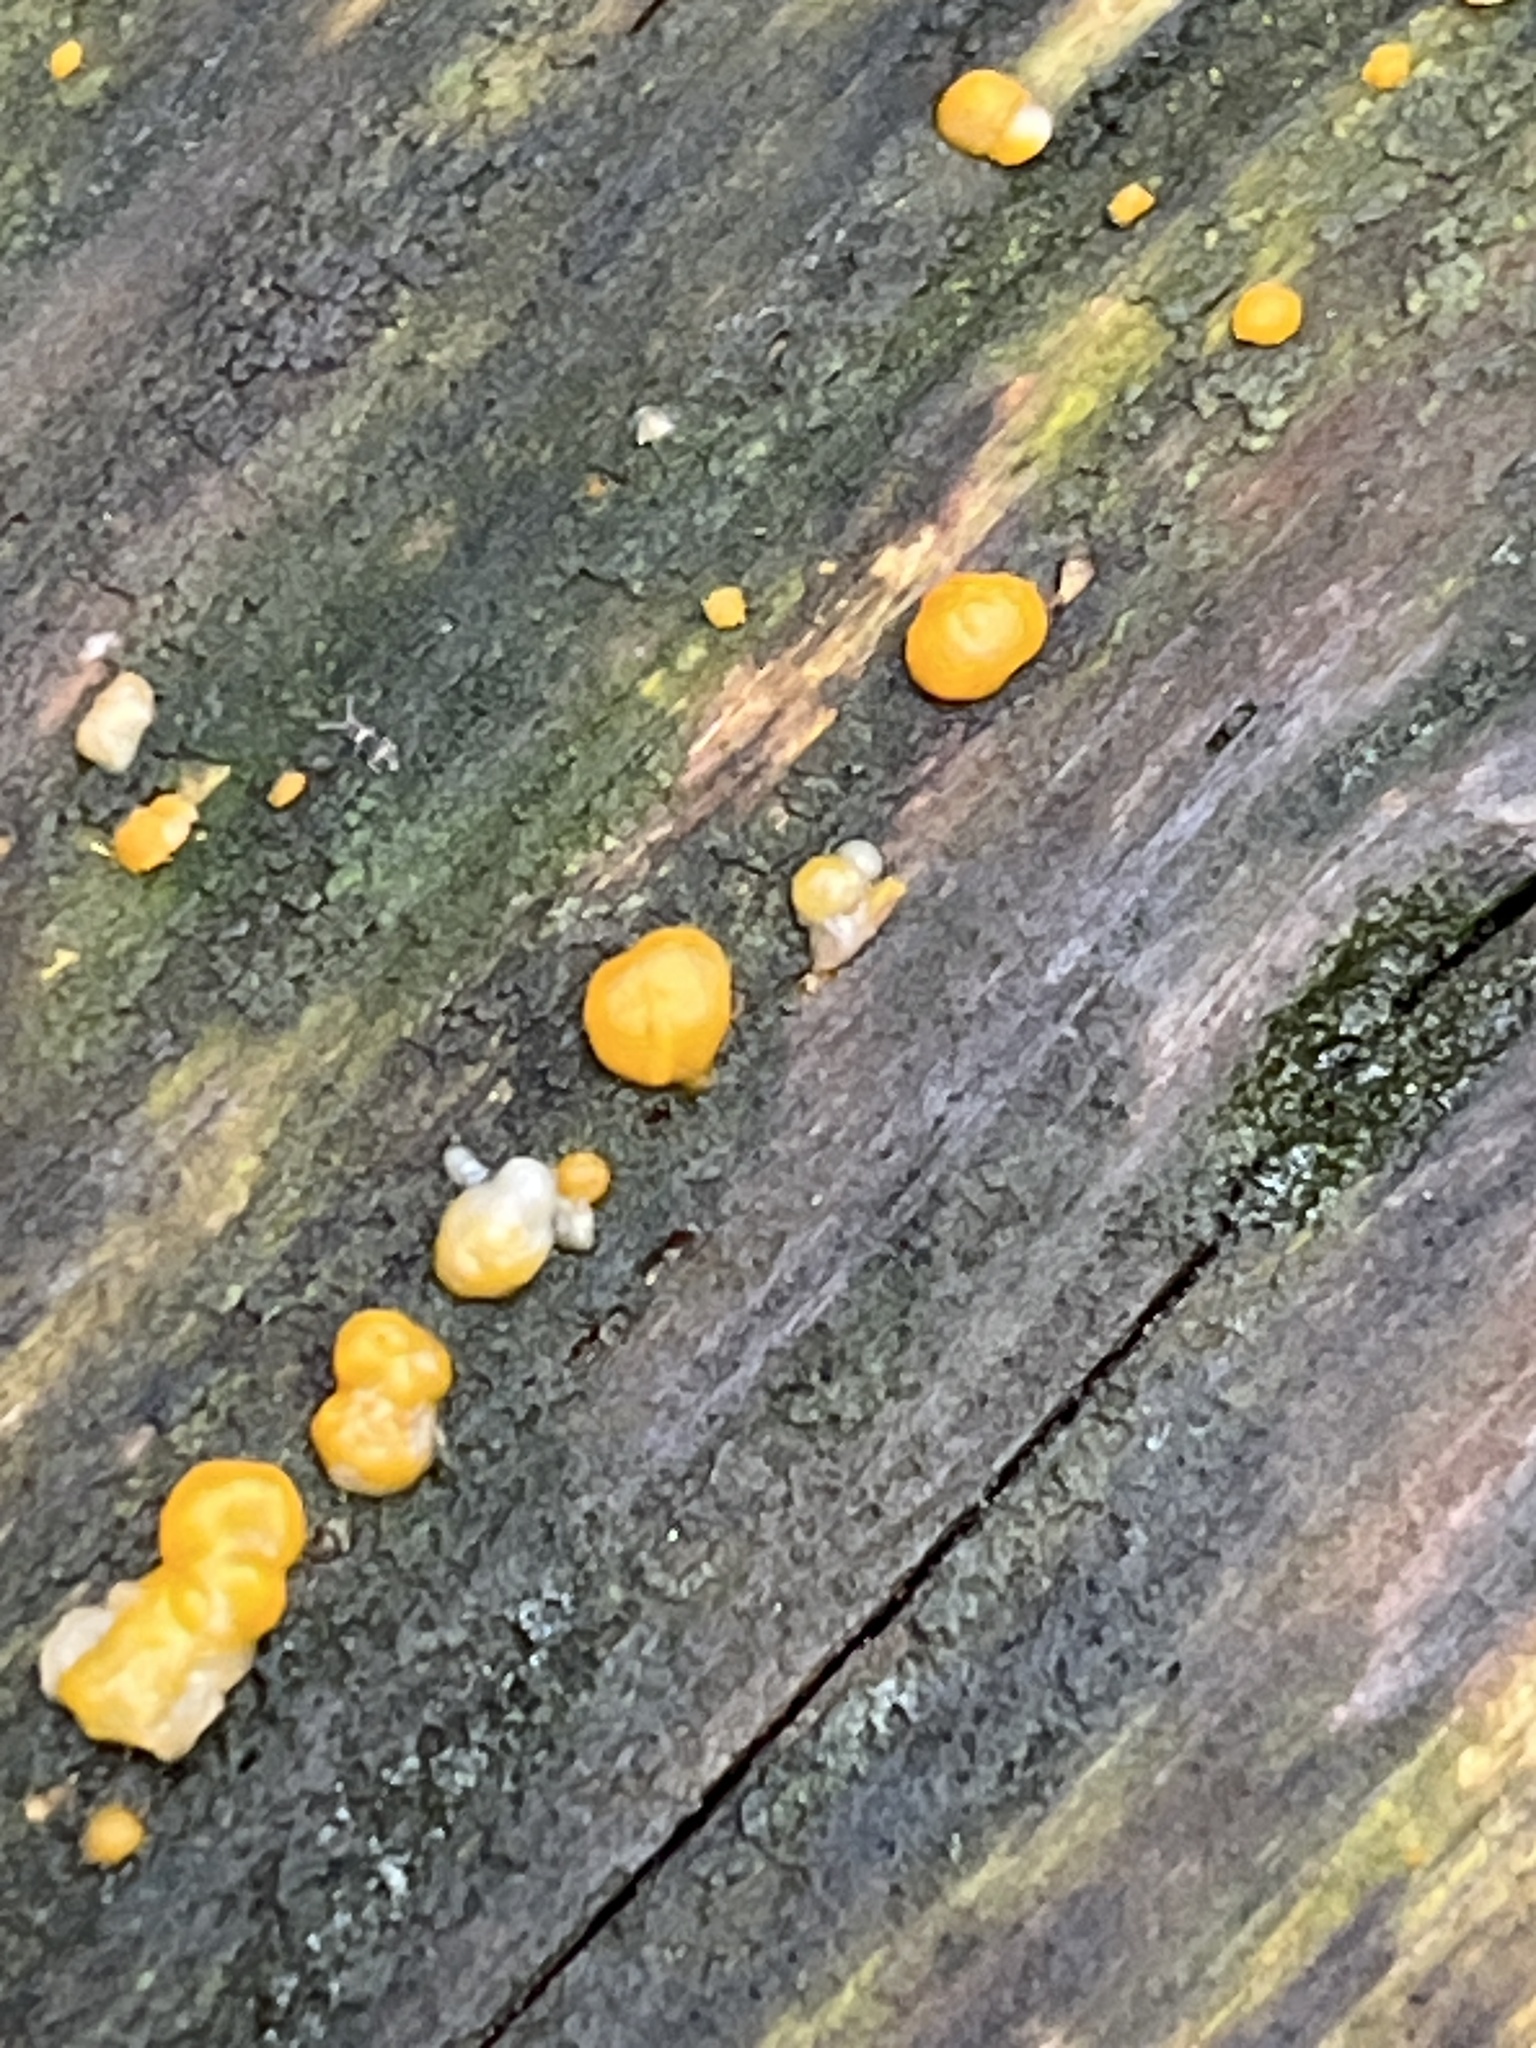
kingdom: Fungi
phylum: Basidiomycota
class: Dacrymycetes
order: Dacrymycetales
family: Dacrymycetaceae
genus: Dacrymyces
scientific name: Dacrymyces stillatus
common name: Common jelly spot
